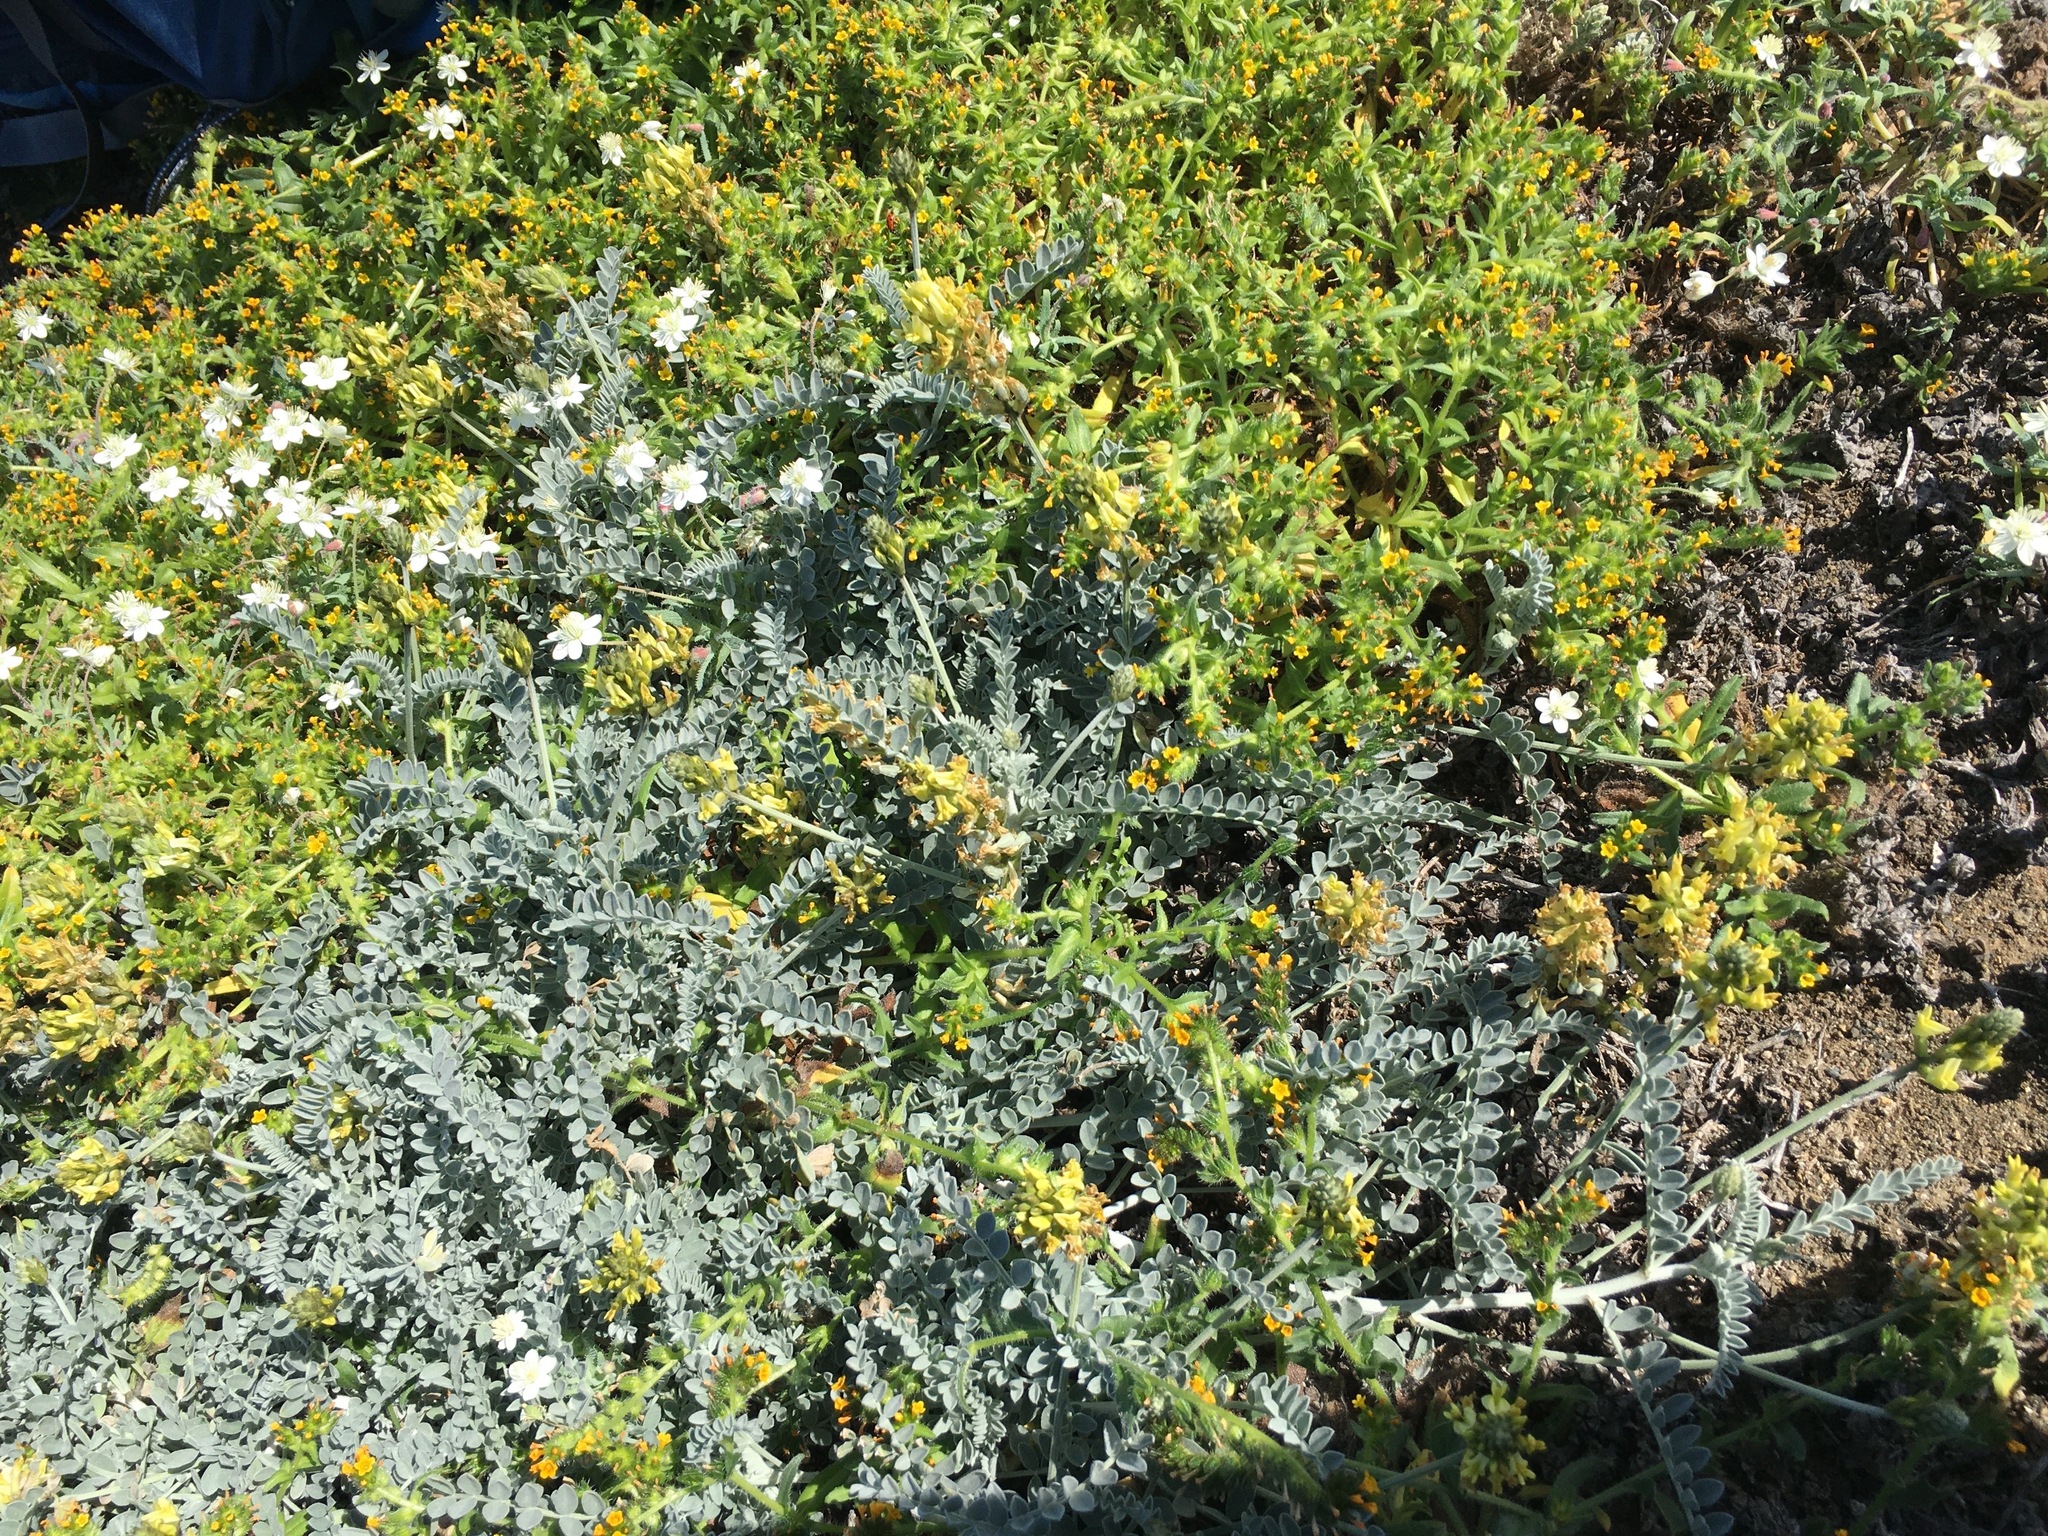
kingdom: Plantae
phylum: Tracheophyta
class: Magnoliopsida
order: Ranunculales
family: Papaveraceae
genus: Platystemon
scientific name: Platystemon californicus
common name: Cream-cups
